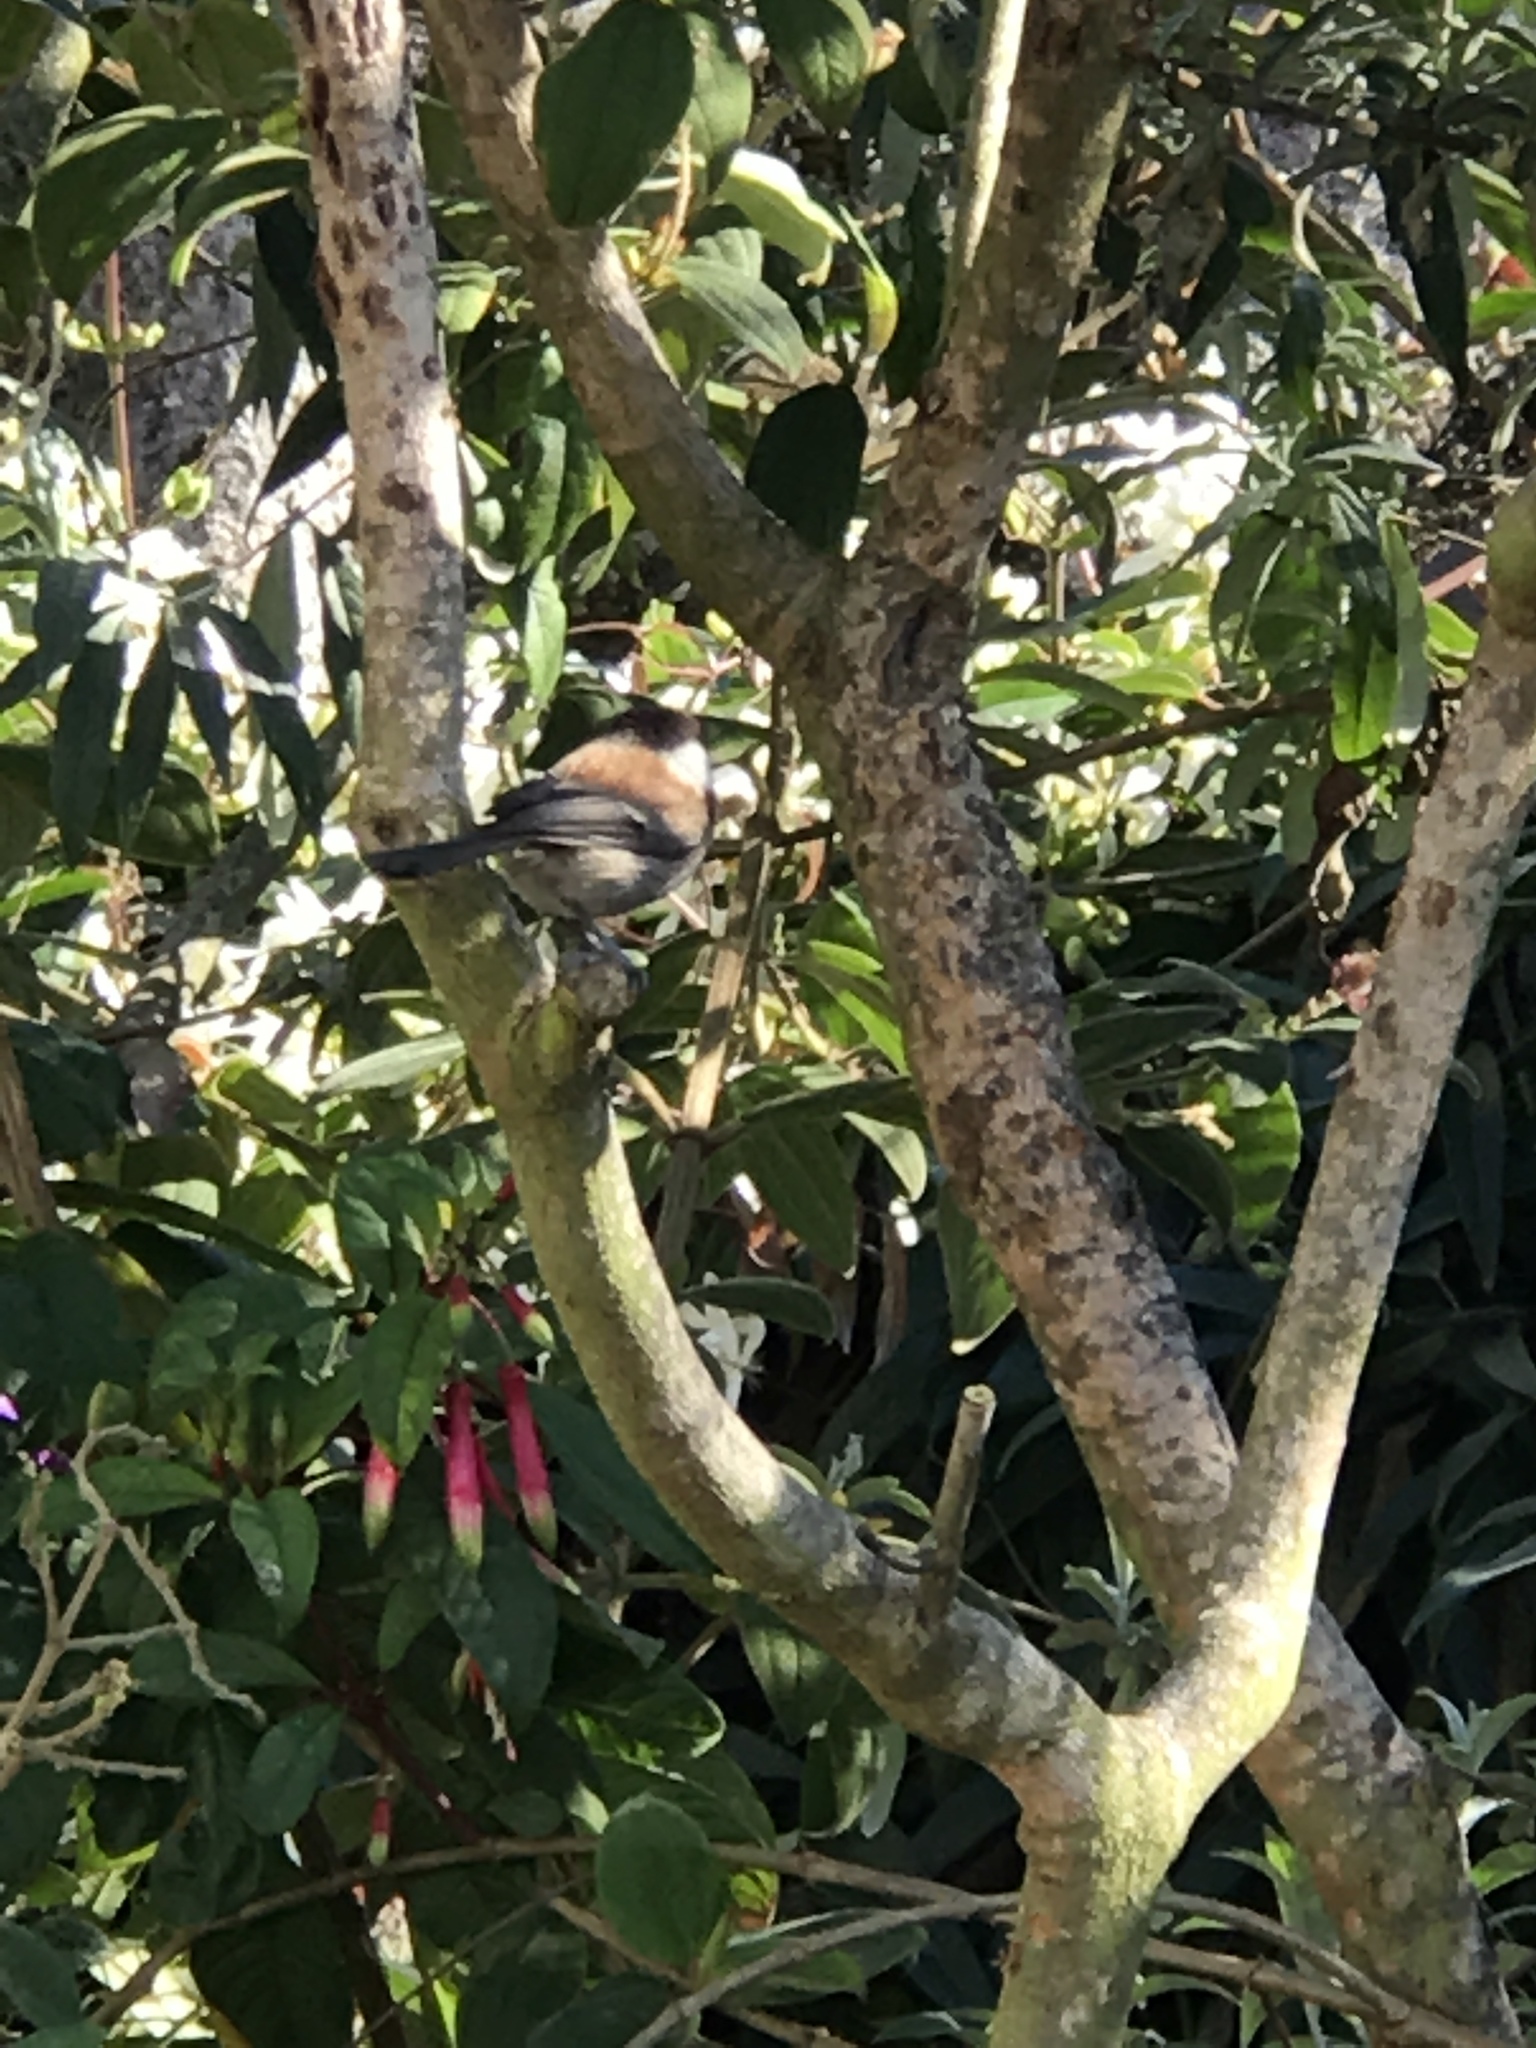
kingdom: Animalia
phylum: Chordata
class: Aves
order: Passeriformes
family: Paridae
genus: Poecile
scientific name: Poecile rufescens
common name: Chestnut-backed chickadee
